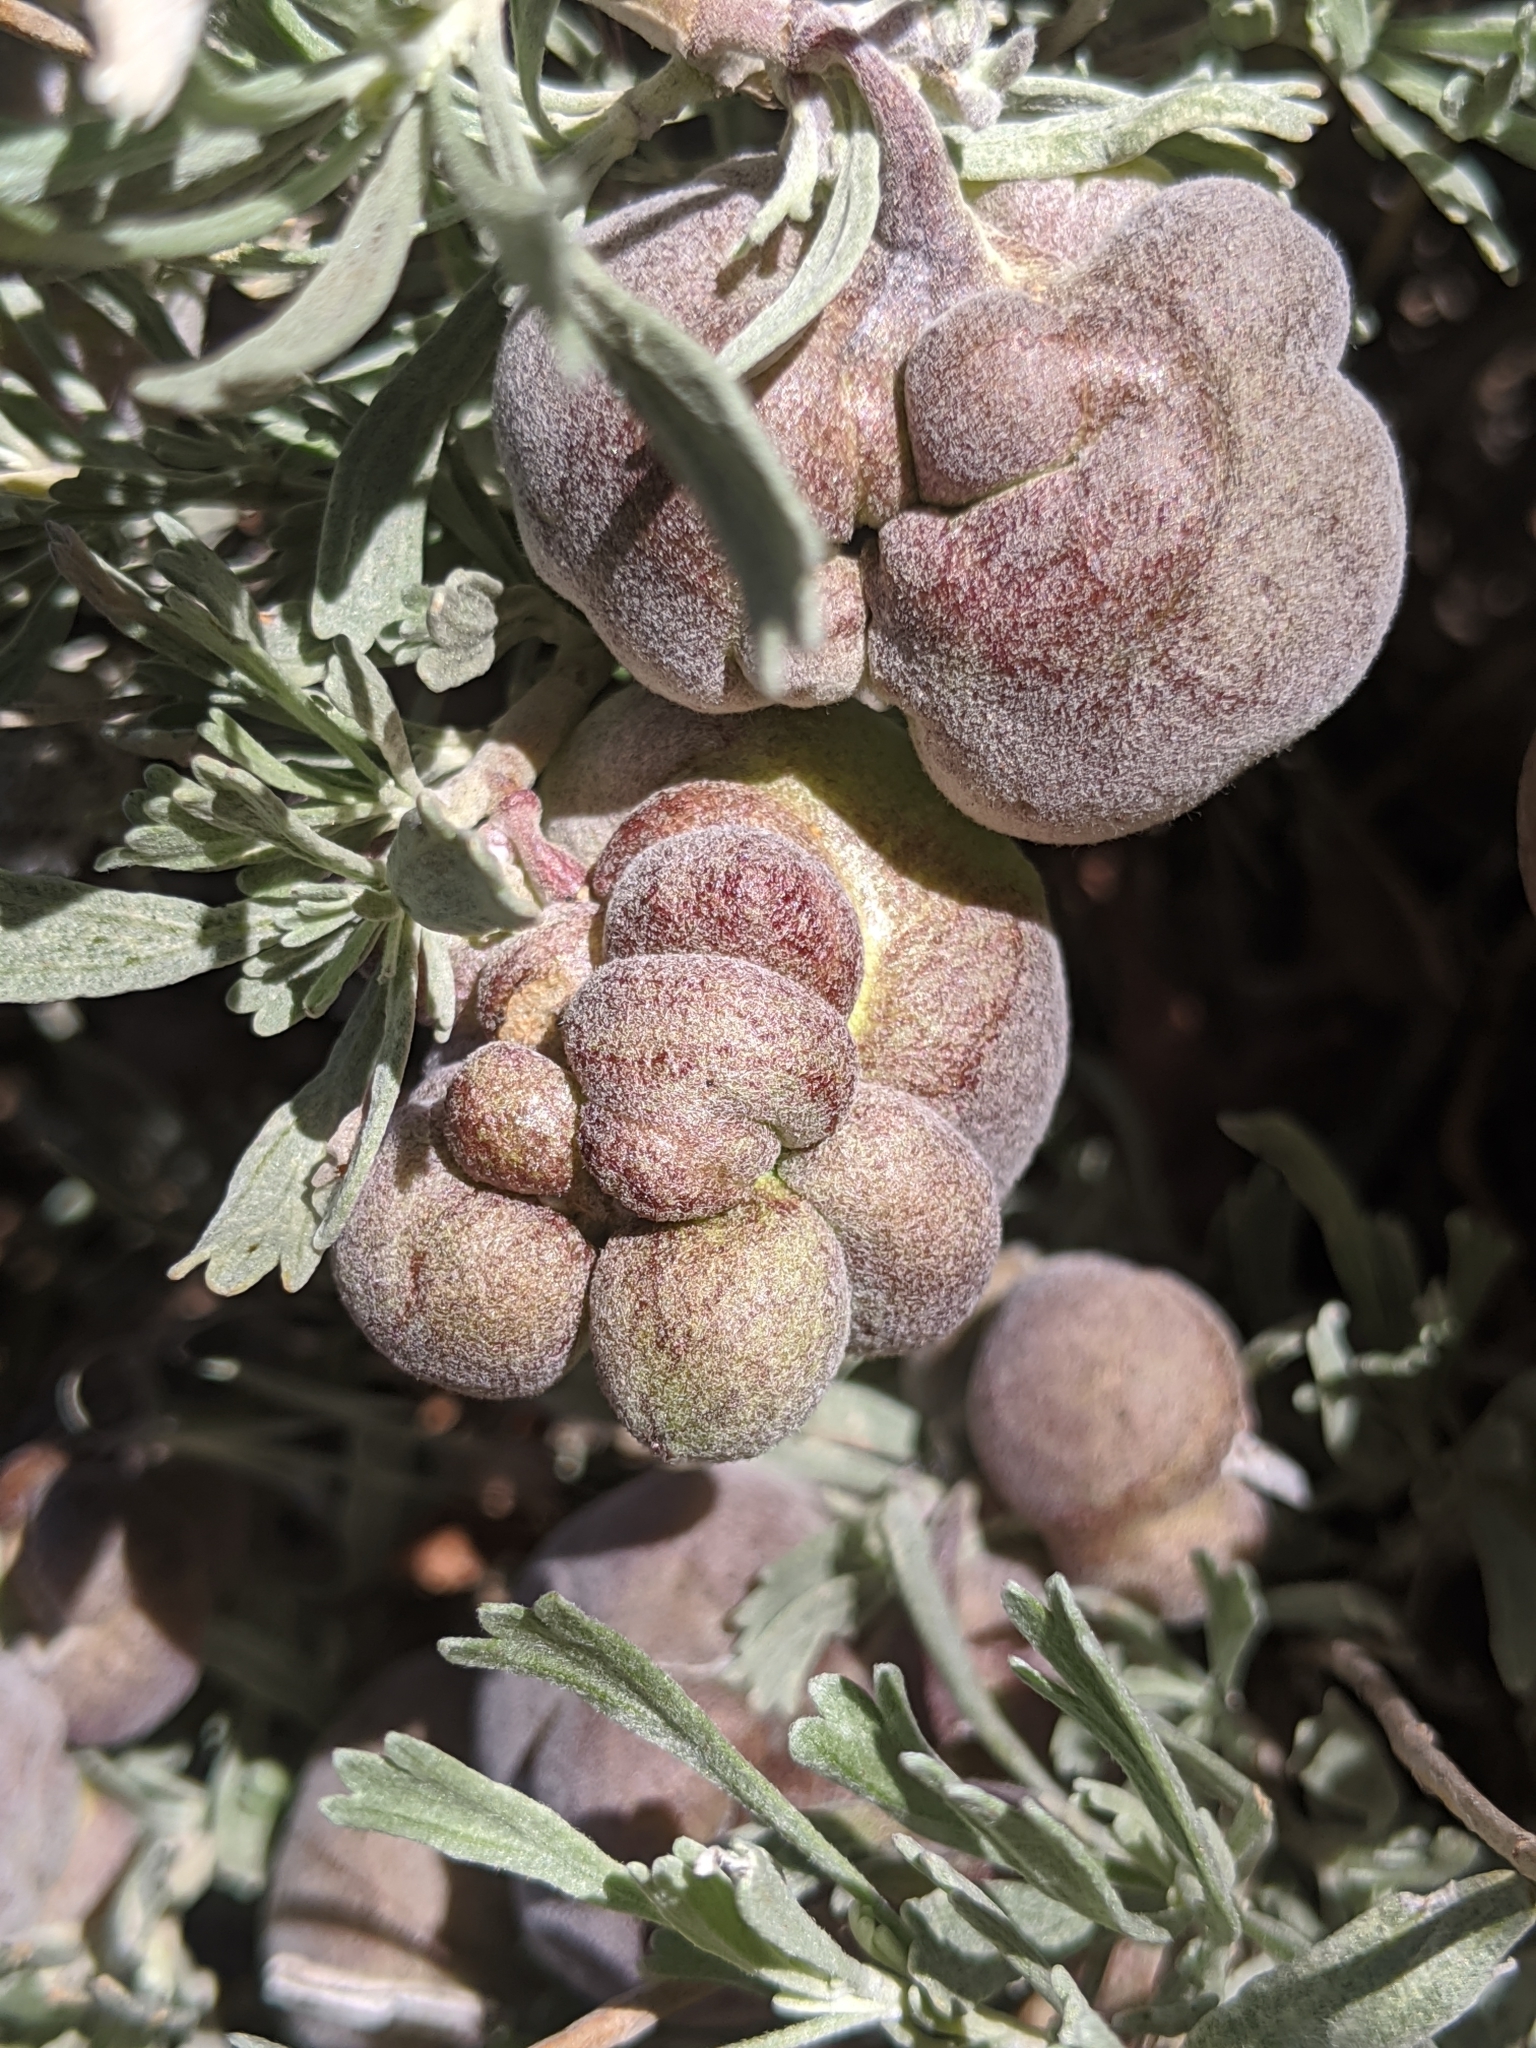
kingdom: Animalia
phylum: Arthropoda
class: Insecta
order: Diptera
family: Cecidomyiidae
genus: Rhopalomyia
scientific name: Rhopalomyia pomum
